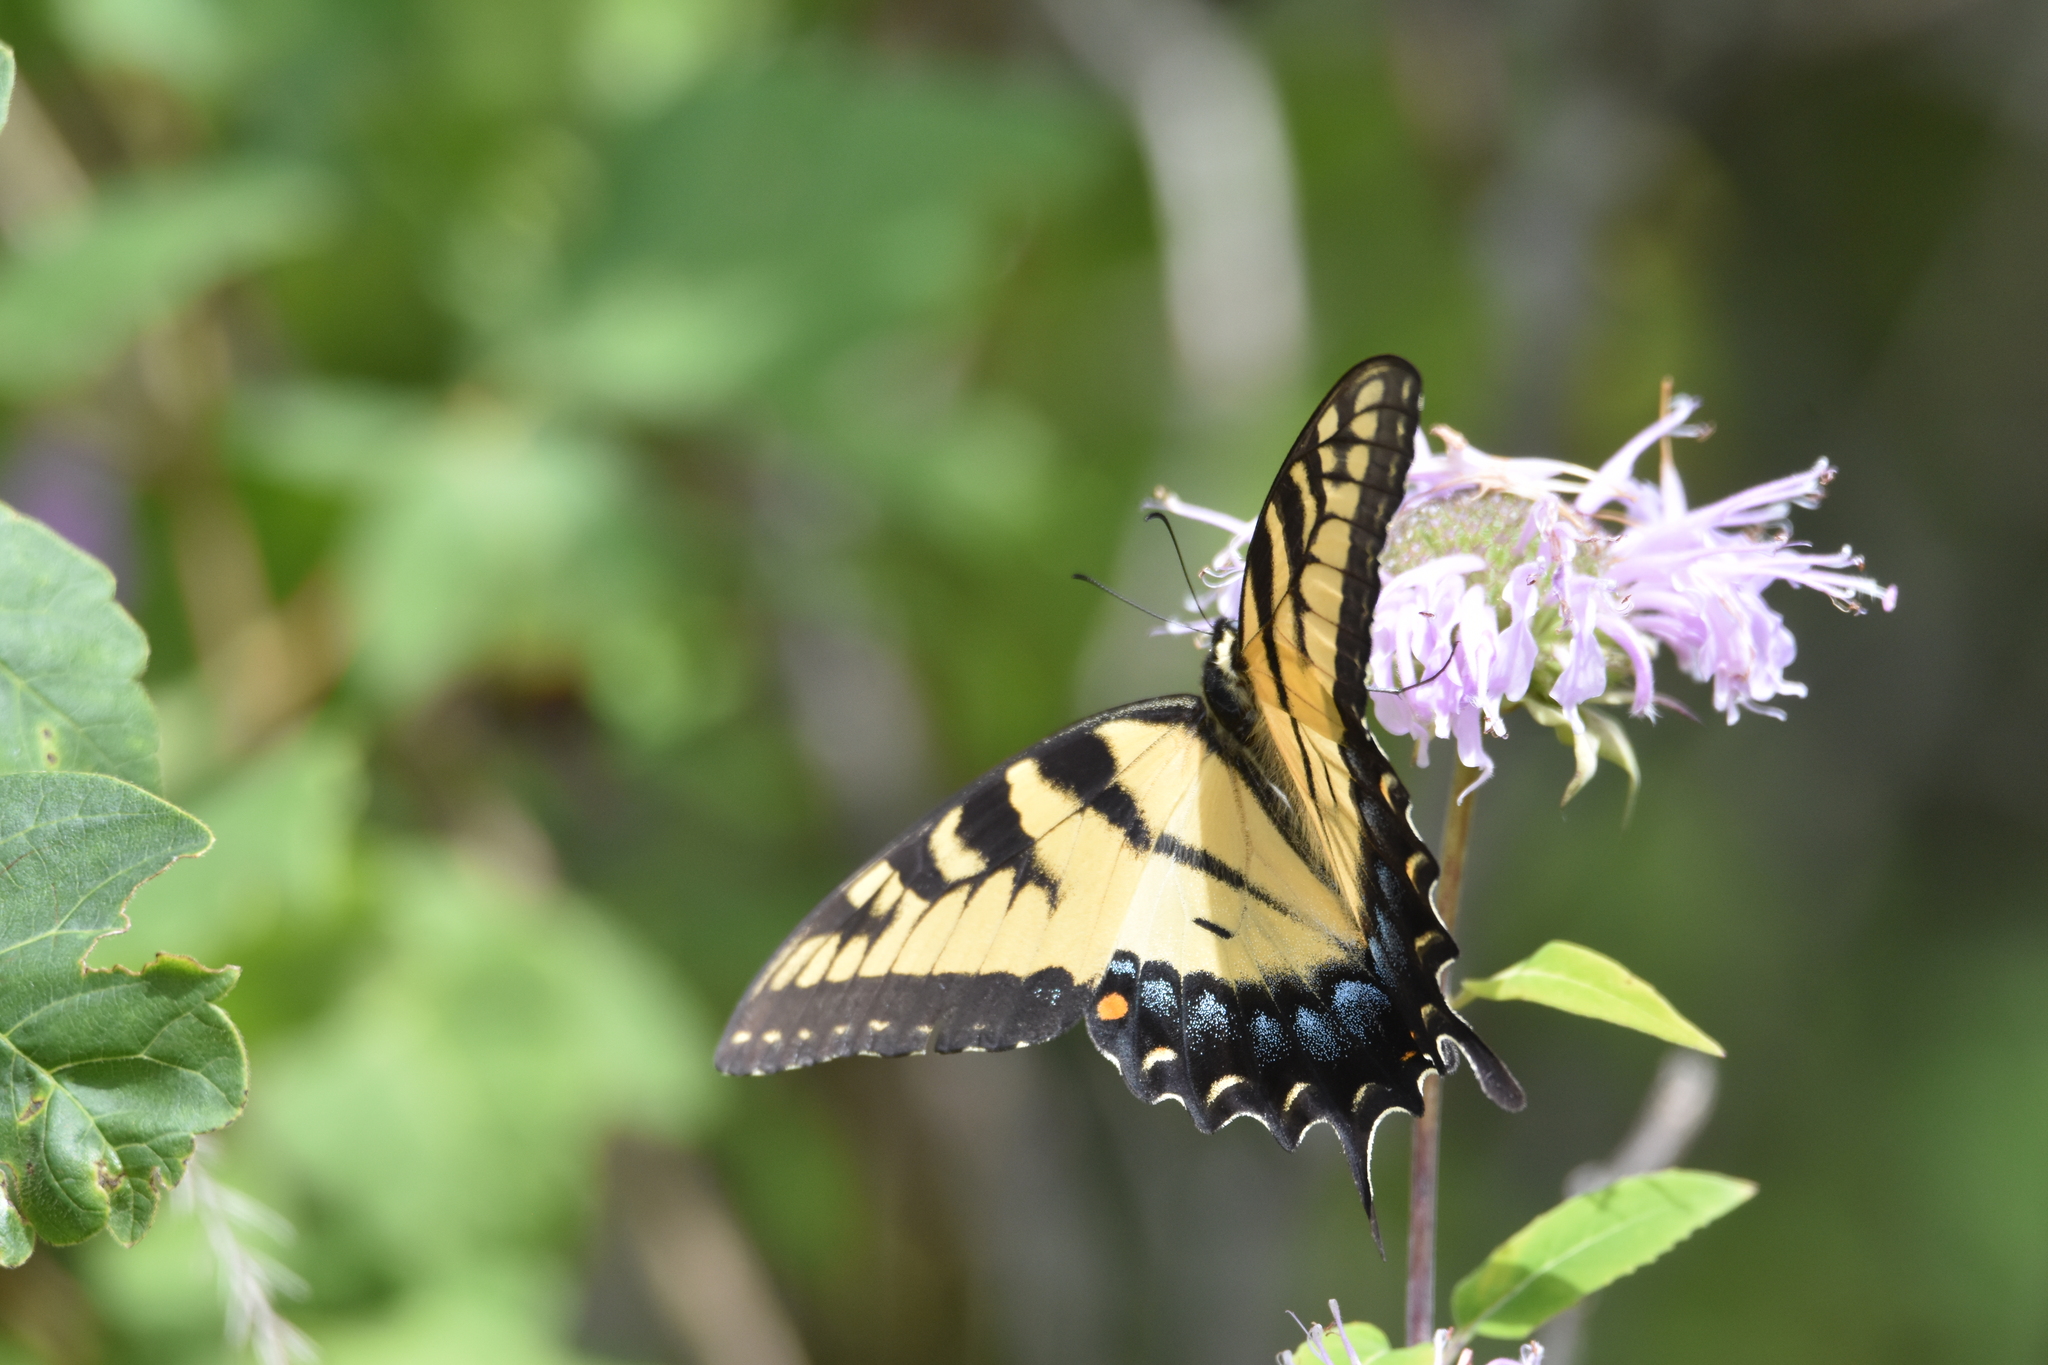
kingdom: Animalia
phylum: Arthropoda
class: Insecta
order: Lepidoptera
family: Papilionidae
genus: Papilio
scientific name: Papilio glaucus
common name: Tiger swallowtail
